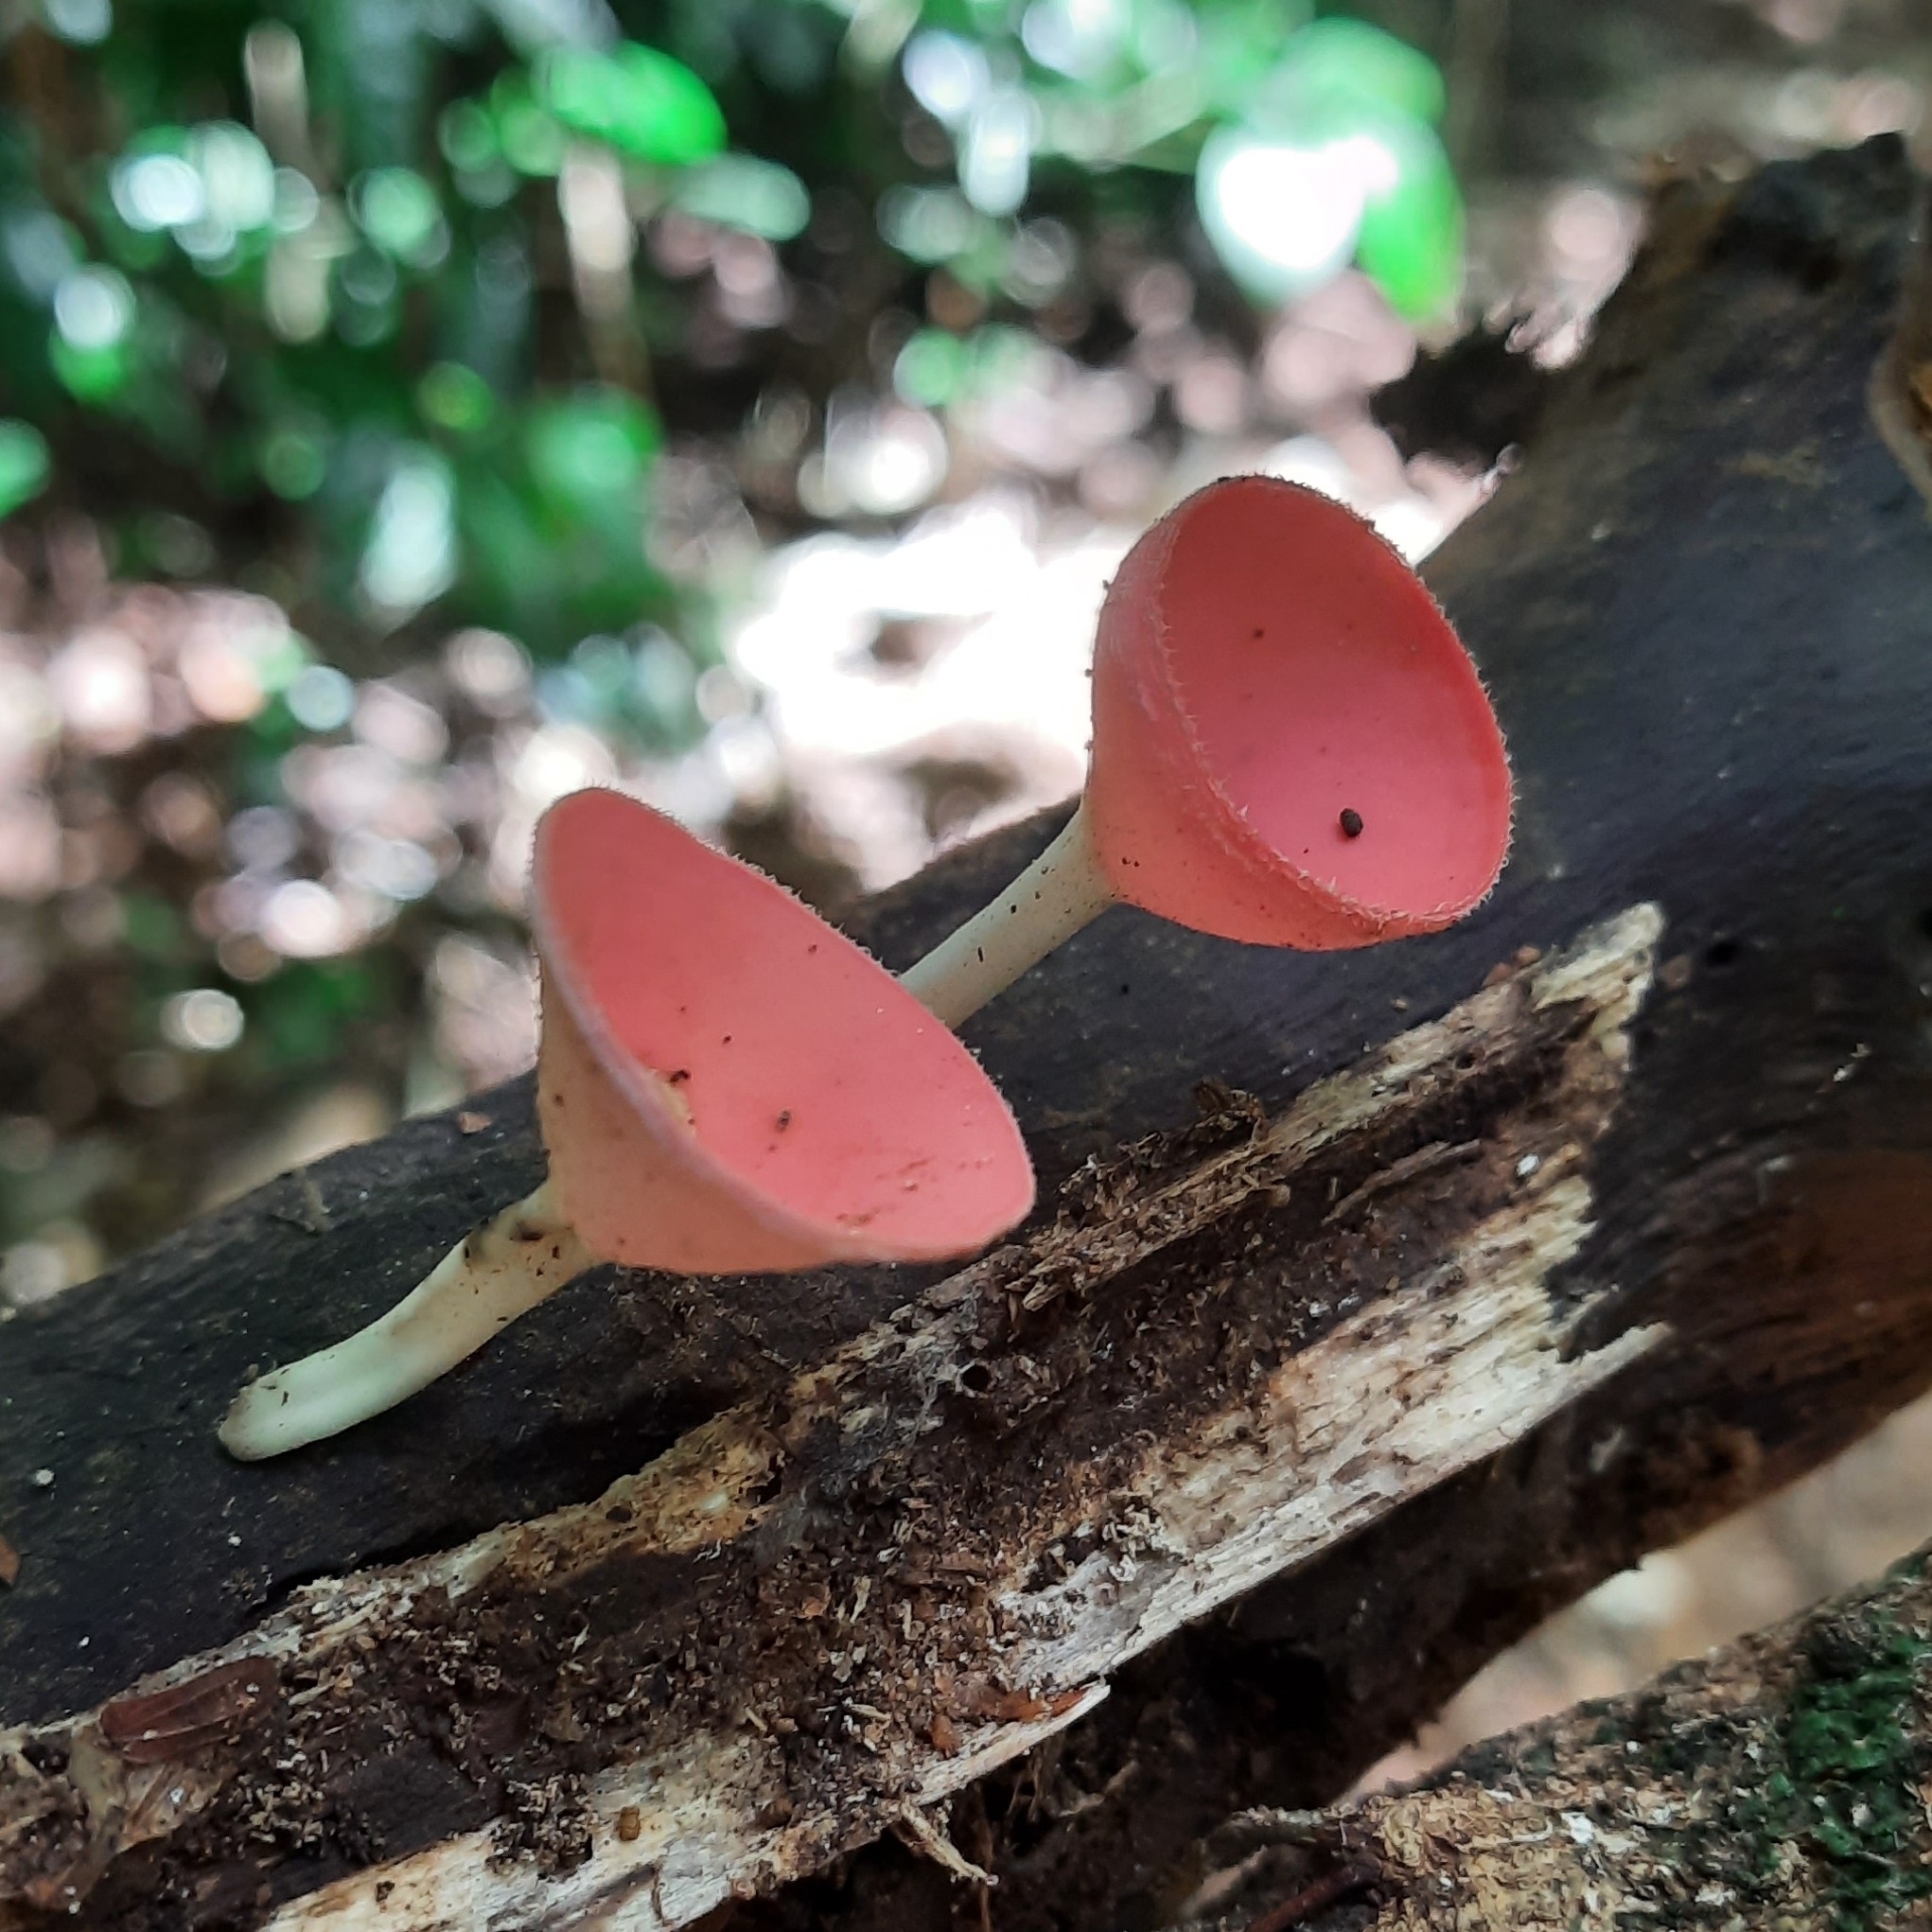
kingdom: Fungi
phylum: Ascomycota
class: Pezizomycetes
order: Pezizales
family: Sarcoscyphaceae
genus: Cookeina
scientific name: Cookeina speciosa
